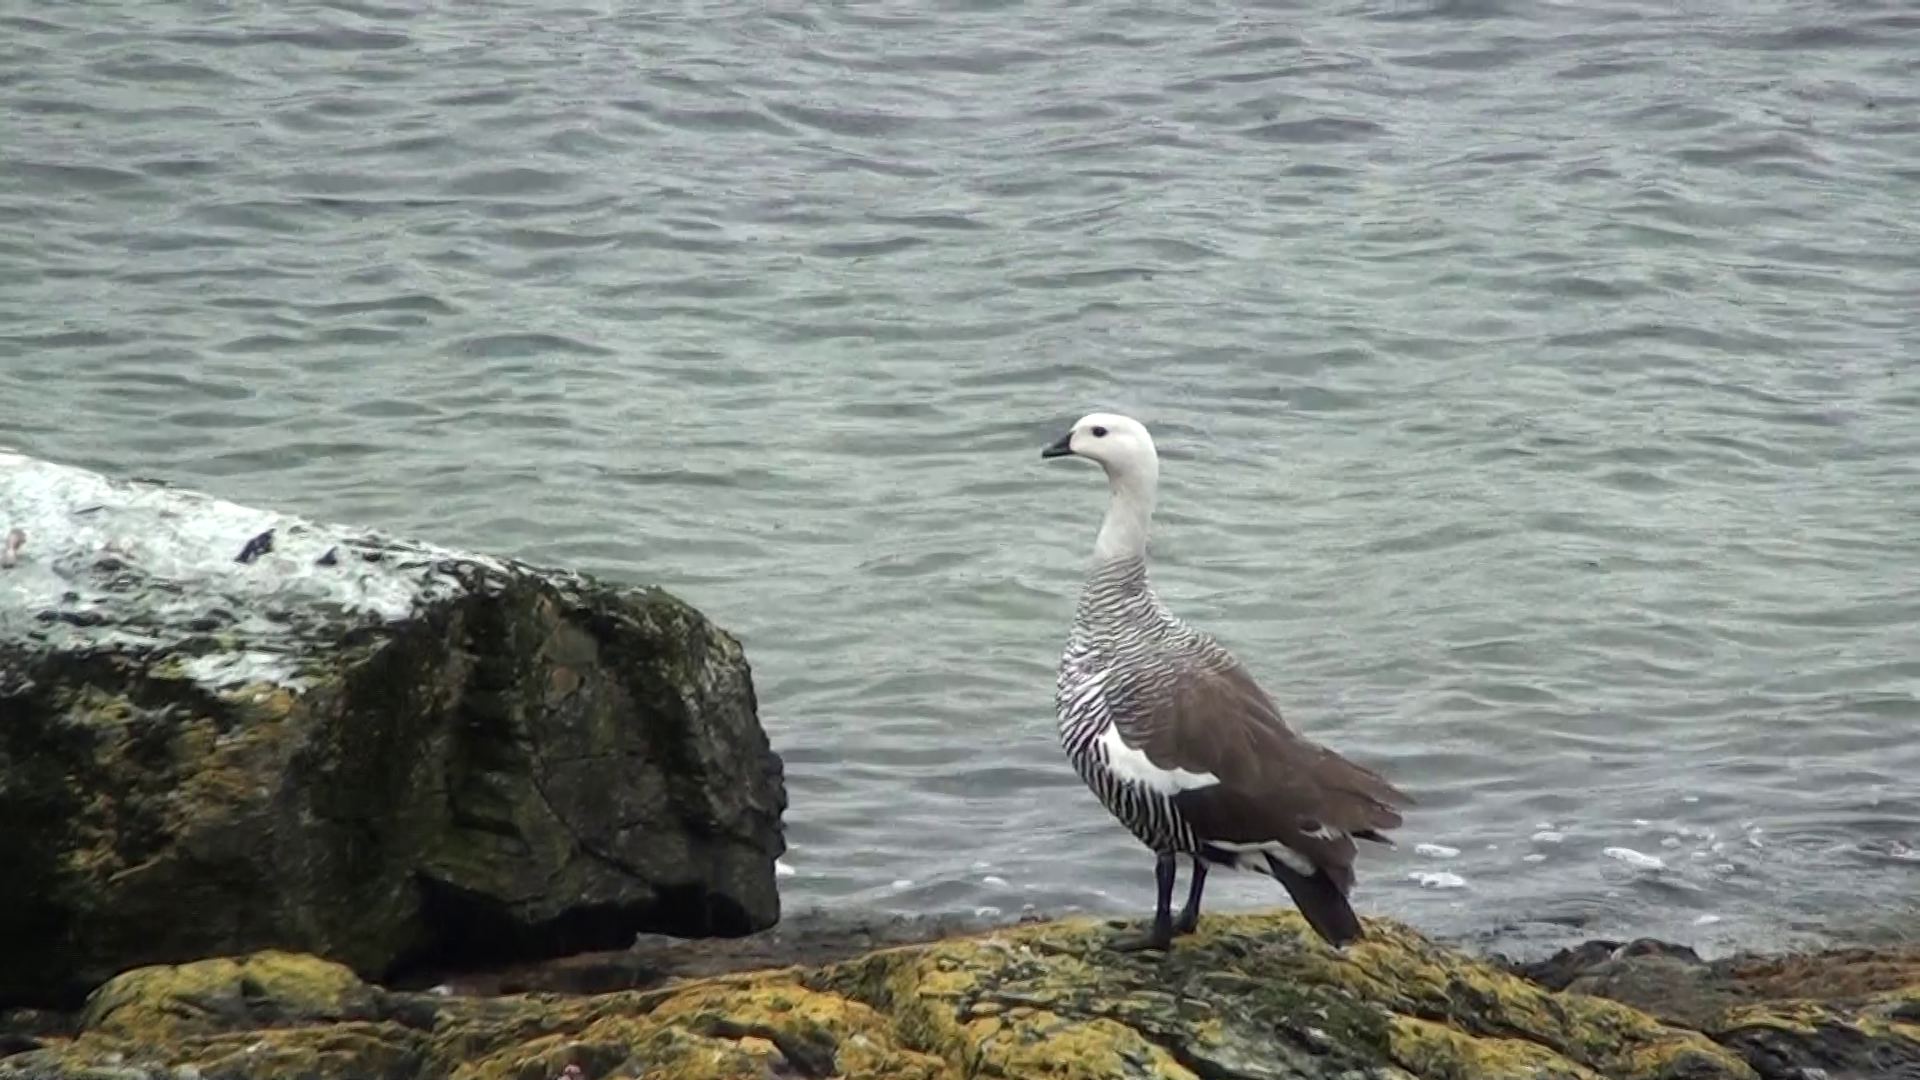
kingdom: Animalia
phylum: Chordata
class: Aves
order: Anseriformes
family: Anatidae
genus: Chloephaga
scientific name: Chloephaga picta
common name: Upland goose
